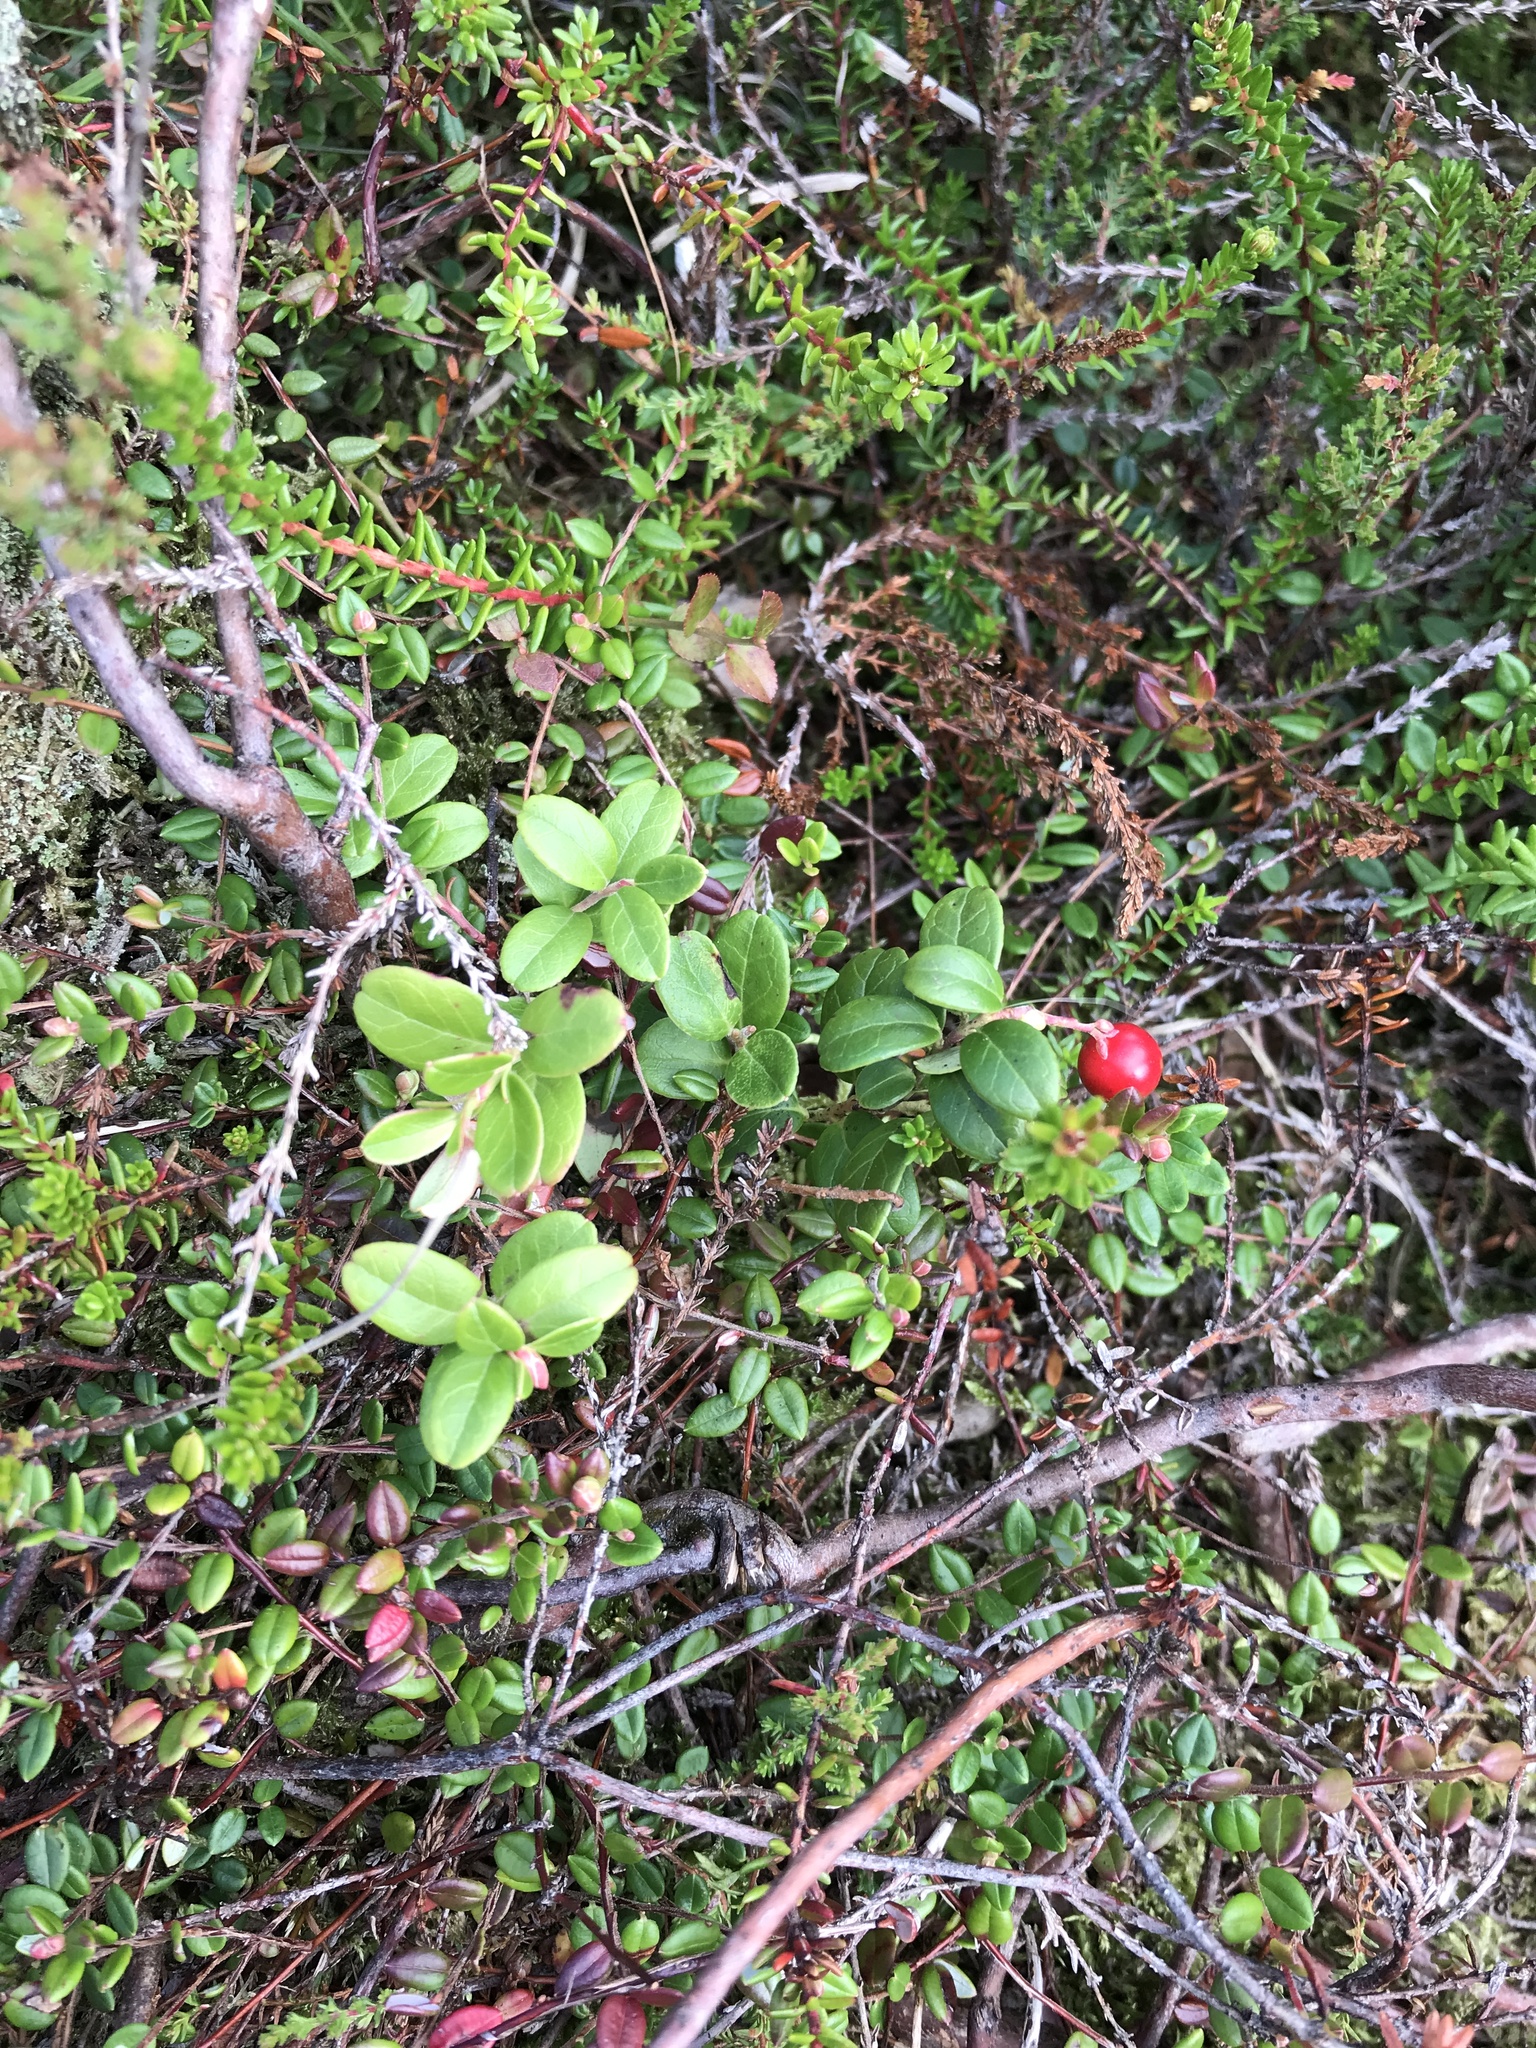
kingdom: Plantae
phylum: Tracheophyta
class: Magnoliopsida
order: Ericales
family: Ericaceae
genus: Vaccinium
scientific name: Vaccinium vitis-idaea
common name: Cowberry
